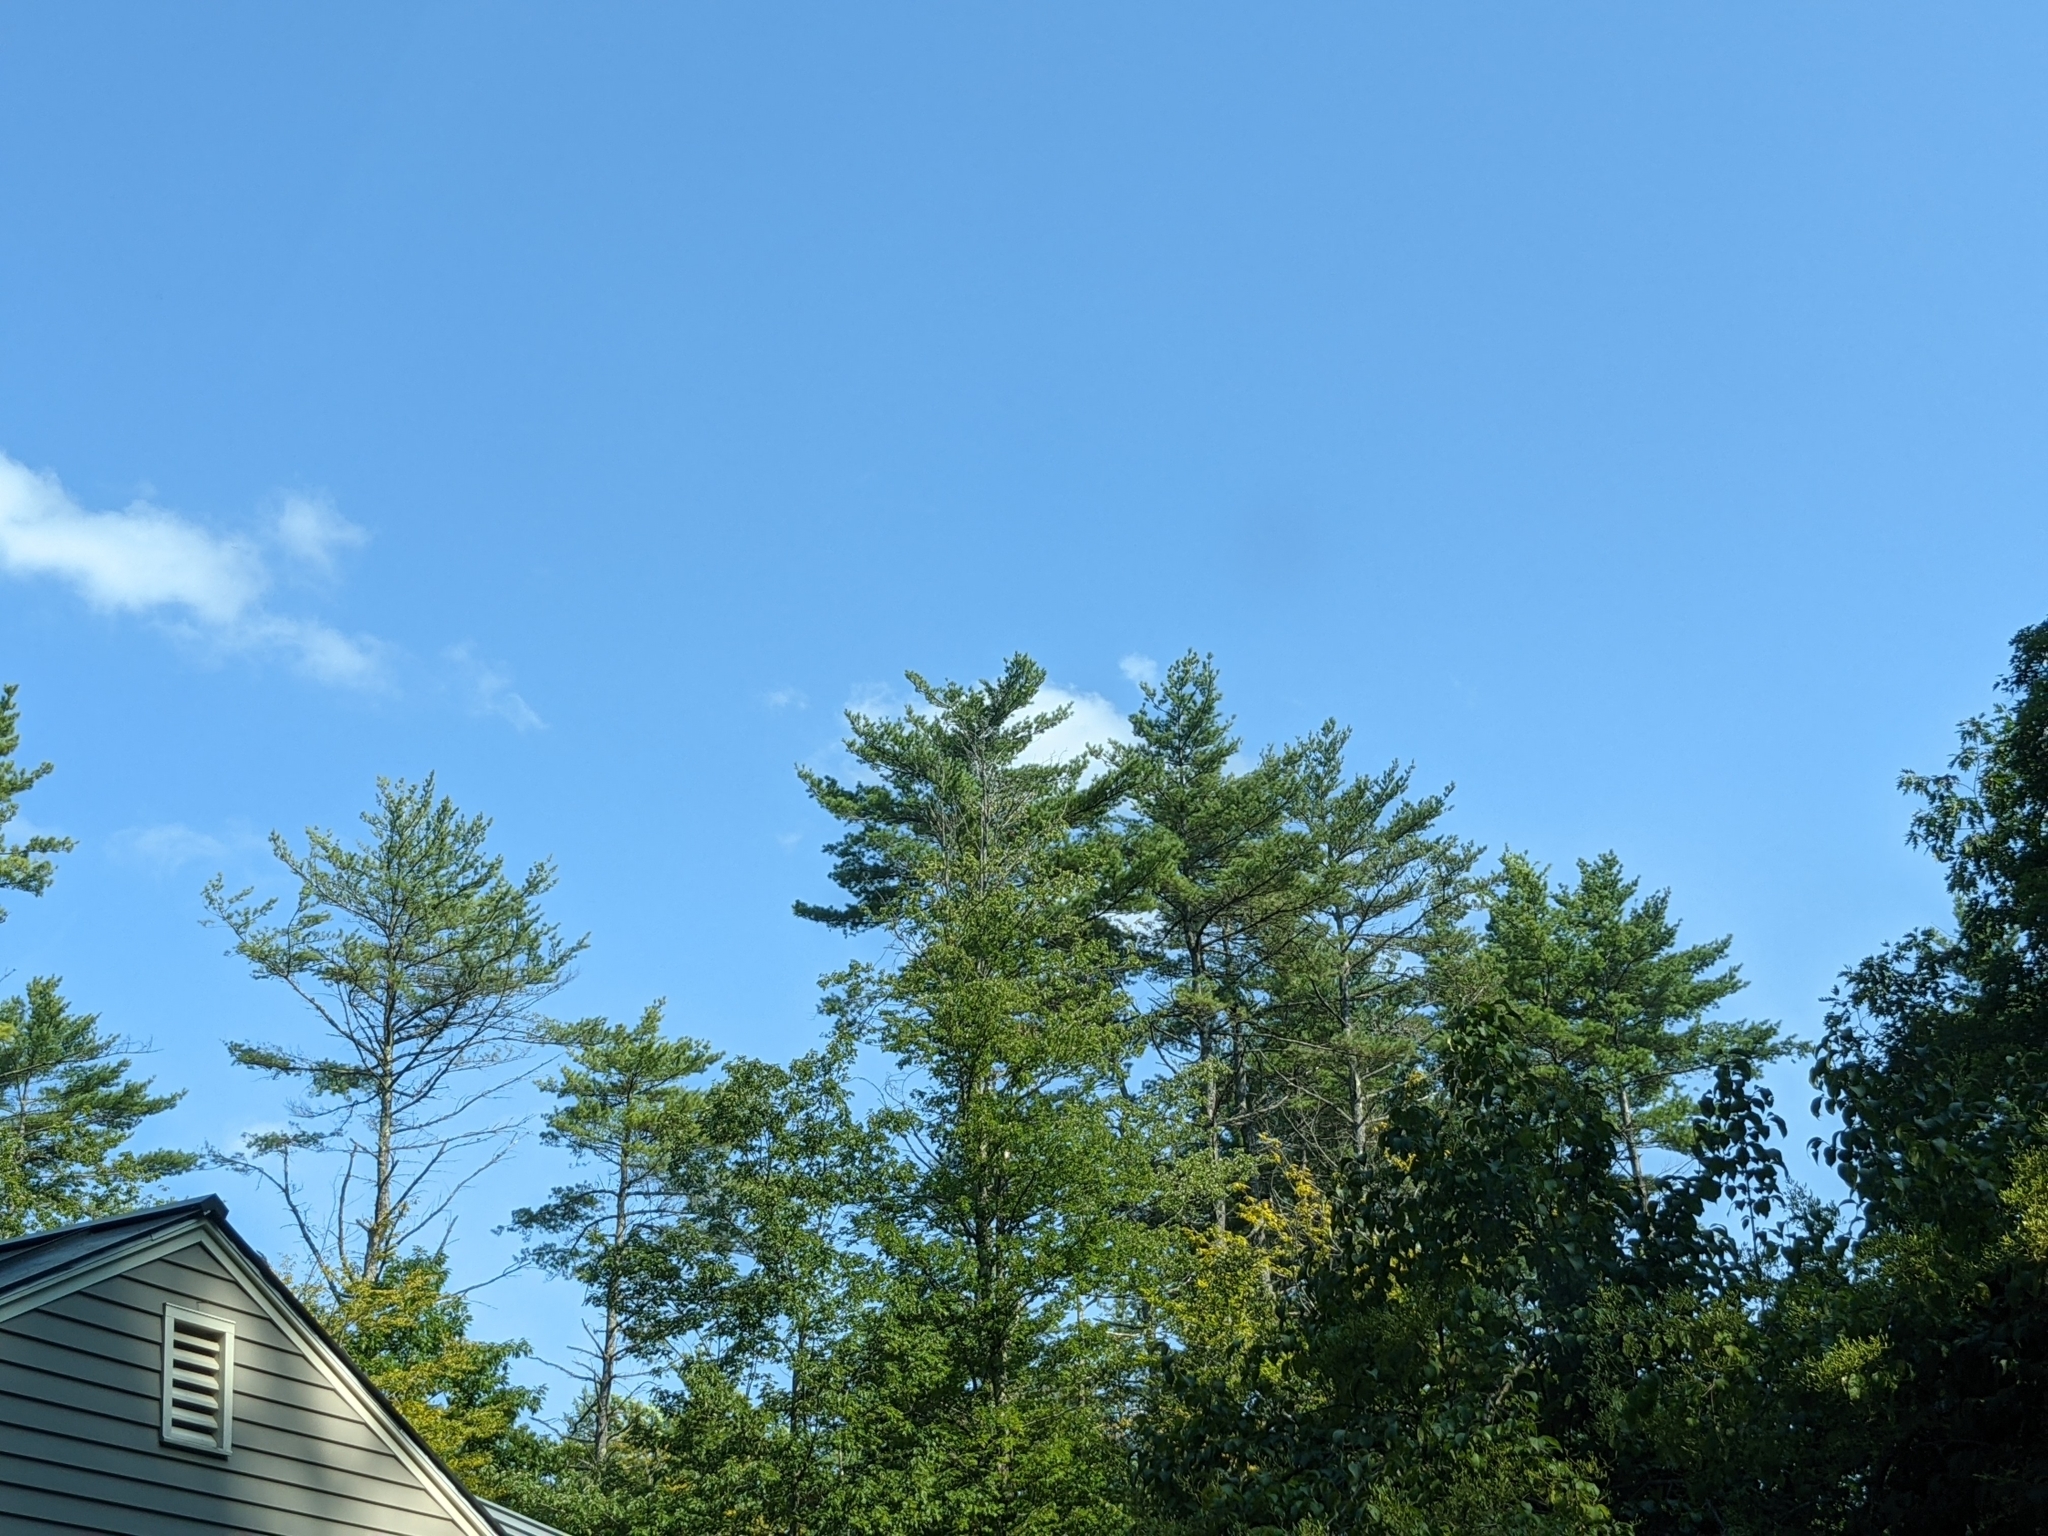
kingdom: Plantae
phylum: Tracheophyta
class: Pinopsida
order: Pinales
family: Pinaceae
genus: Pinus
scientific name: Pinus strobus
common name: Weymouth pine
